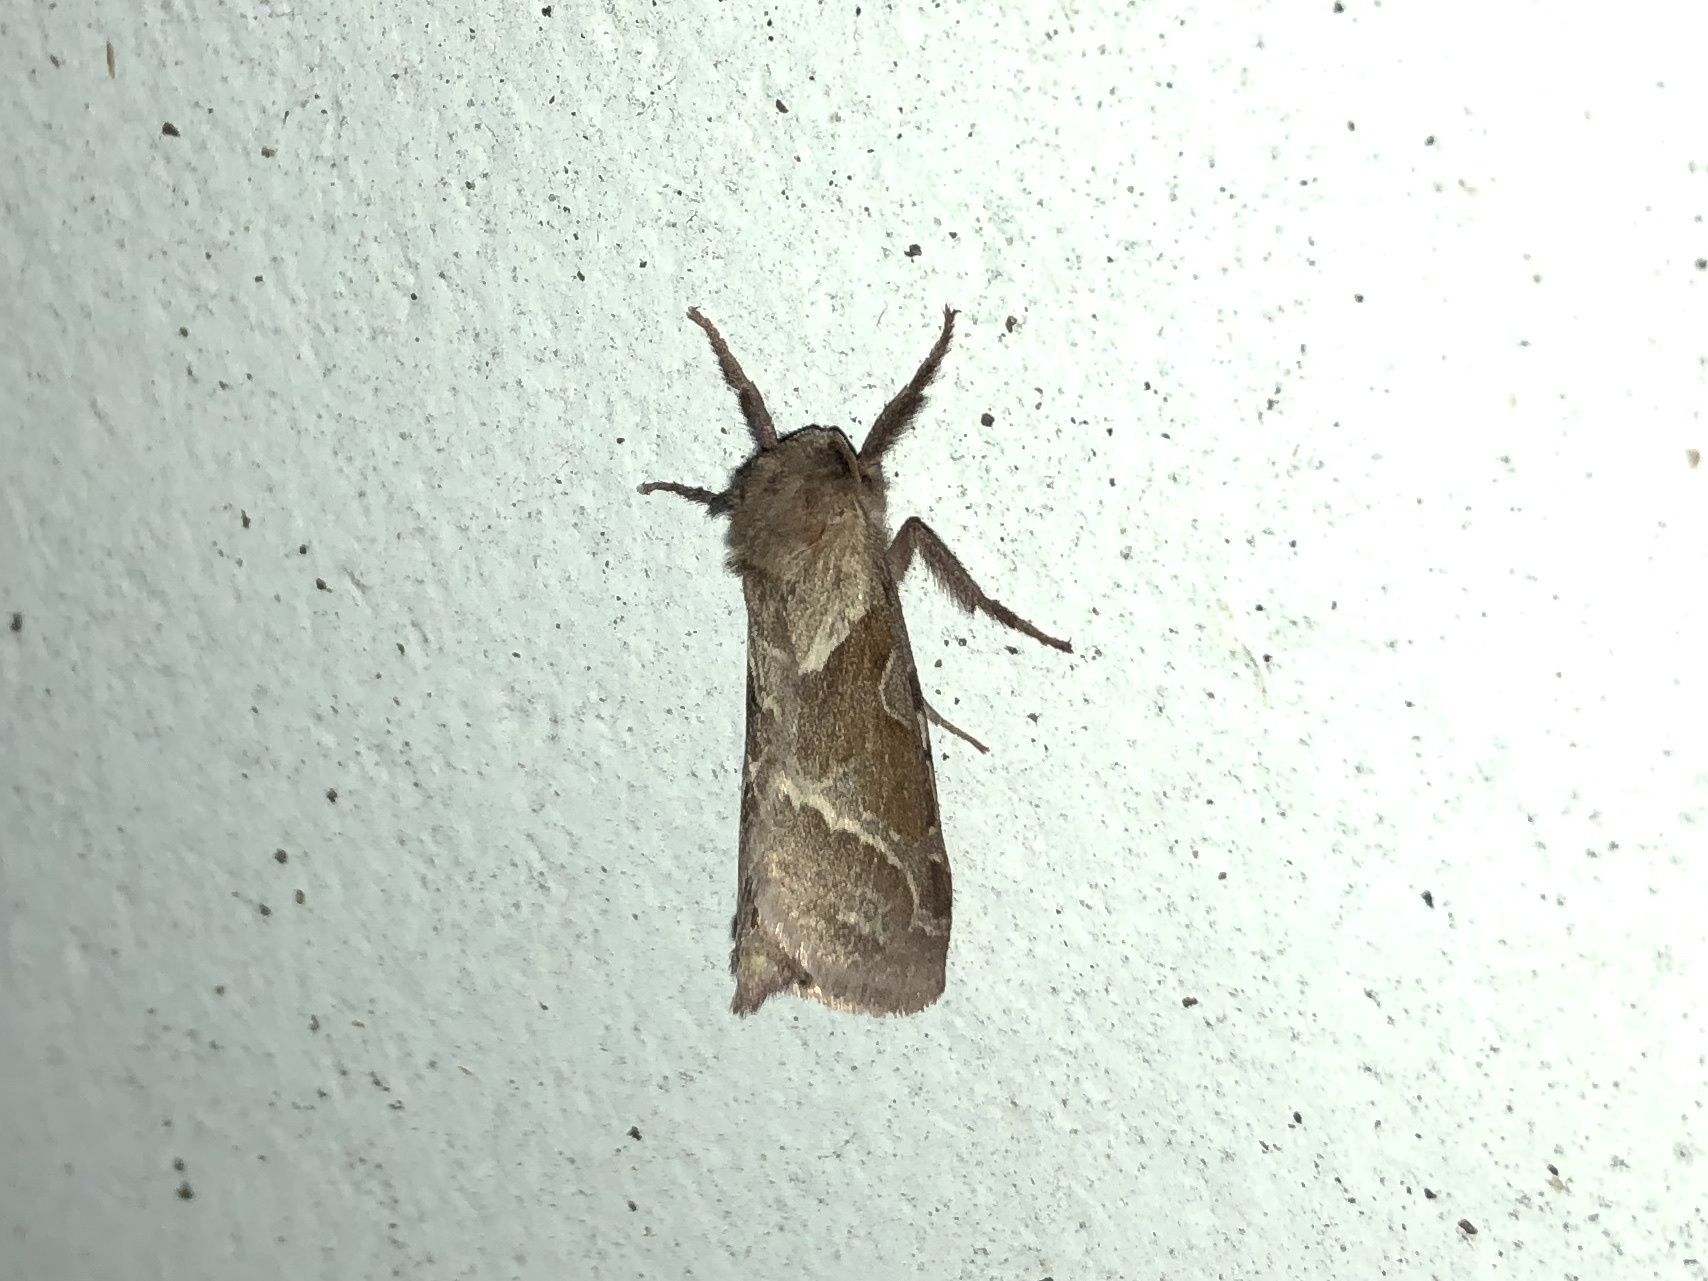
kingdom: Animalia
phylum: Arthropoda
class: Insecta
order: Lepidoptera
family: Hepialidae
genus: Triodia
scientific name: Triodia sylvina
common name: Orange swift
